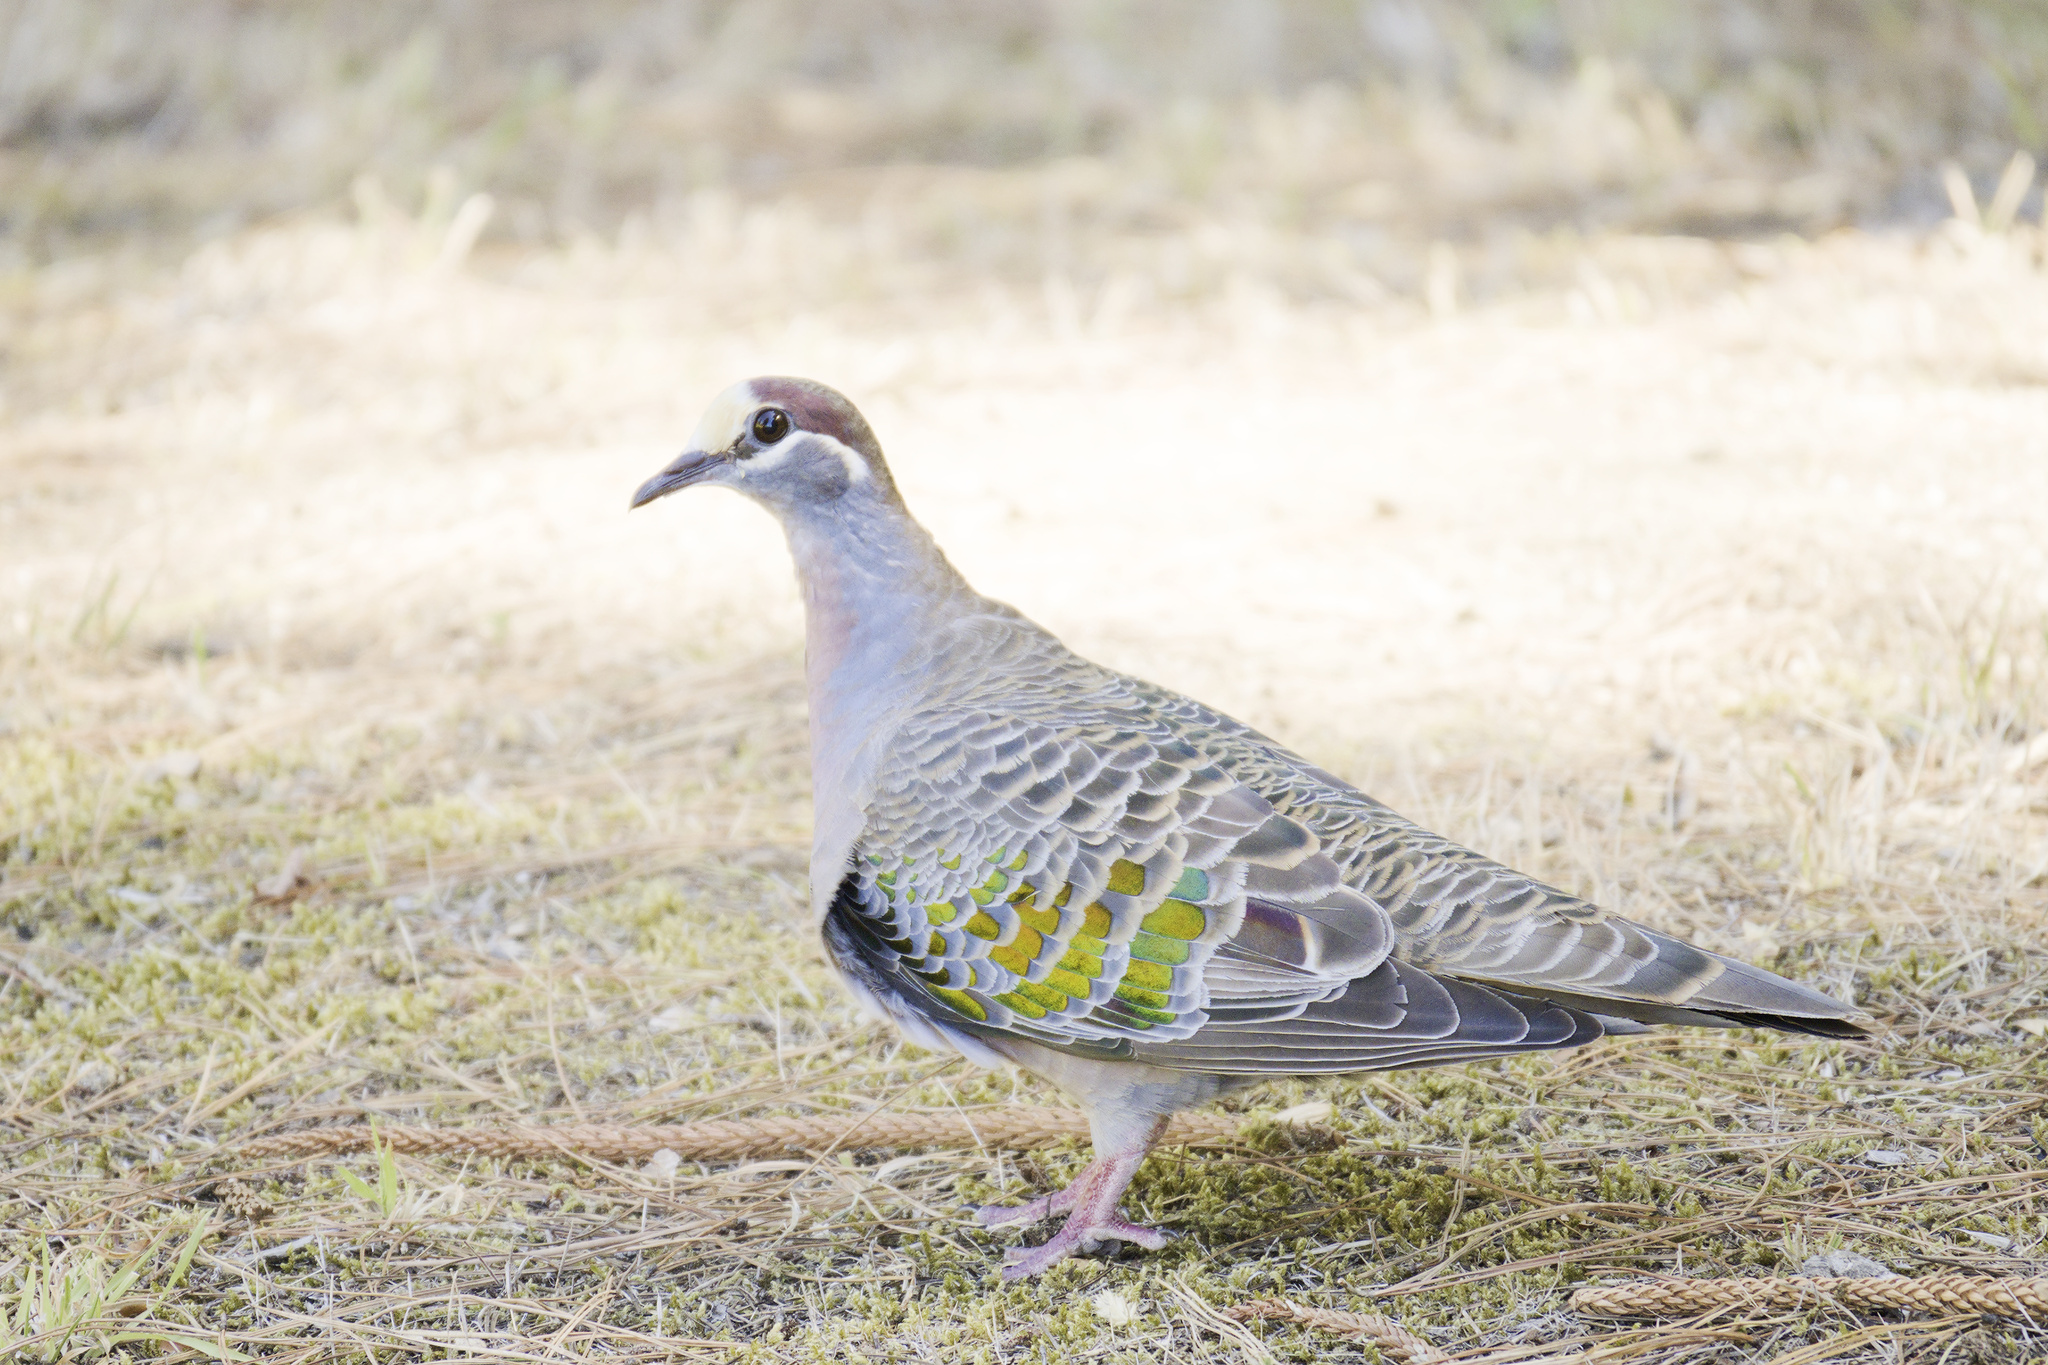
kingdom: Animalia
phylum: Chordata
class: Aves
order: Columbiformes
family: Columbidae
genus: Phaps
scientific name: Phaps chalcoptera
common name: Common bronzewing
